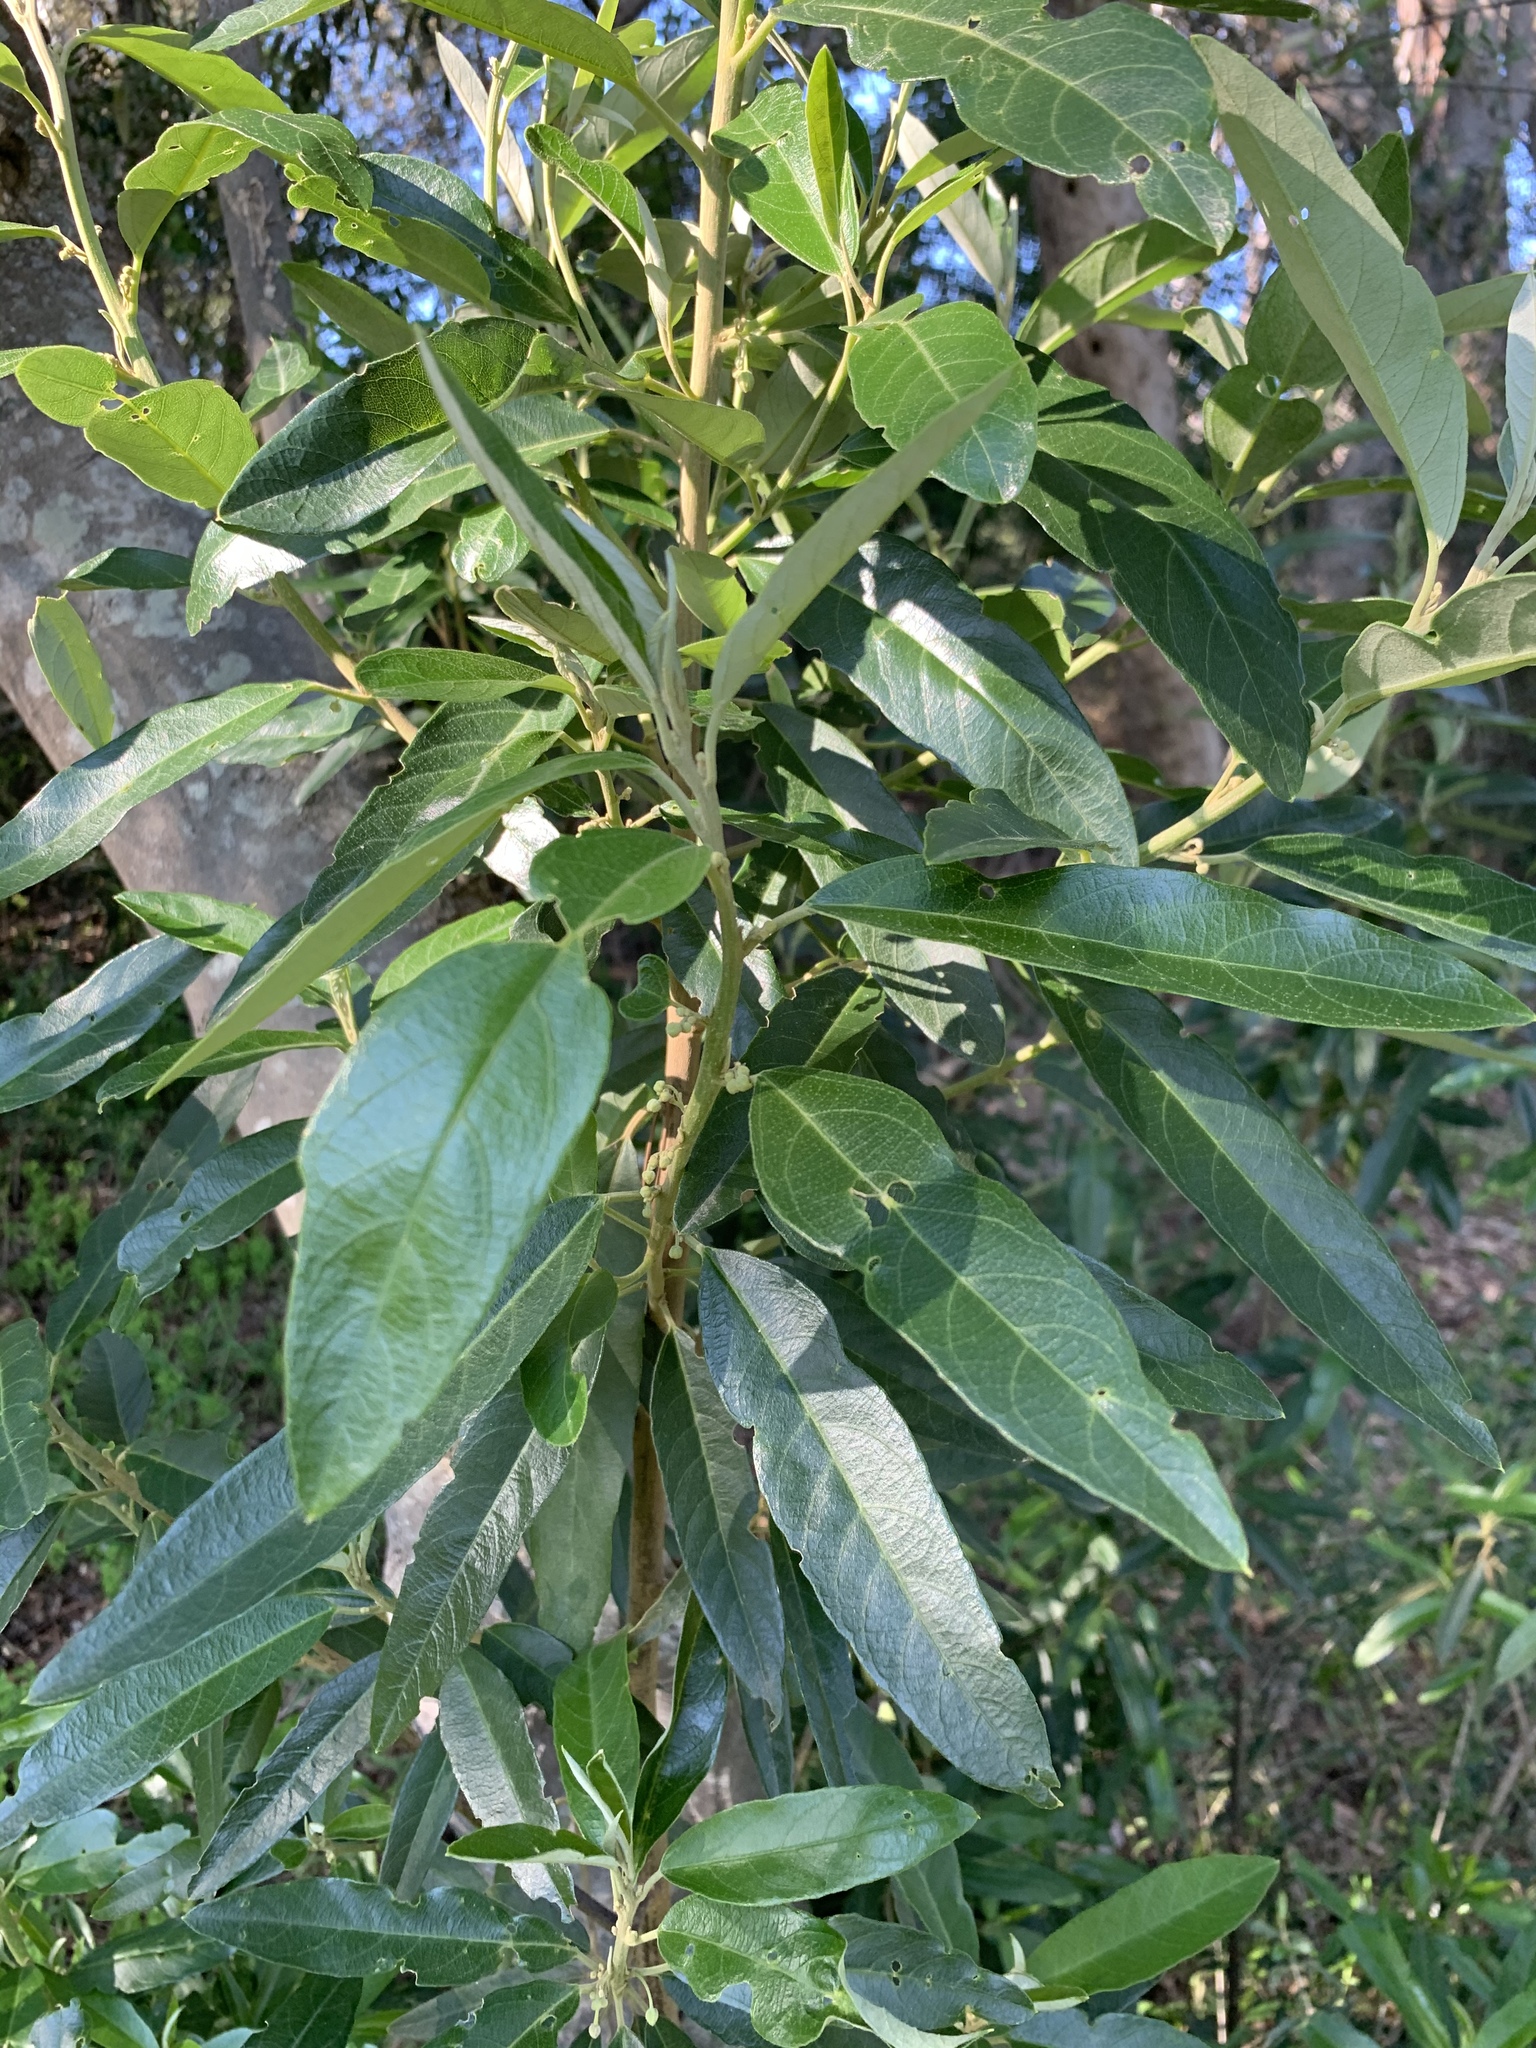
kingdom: Plantae
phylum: Tracheophyta
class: Magnoliopsida
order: Malpighiales
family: Achariaceae
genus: Kiggelaria
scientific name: Kiggelaria africana
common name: Wild peach
